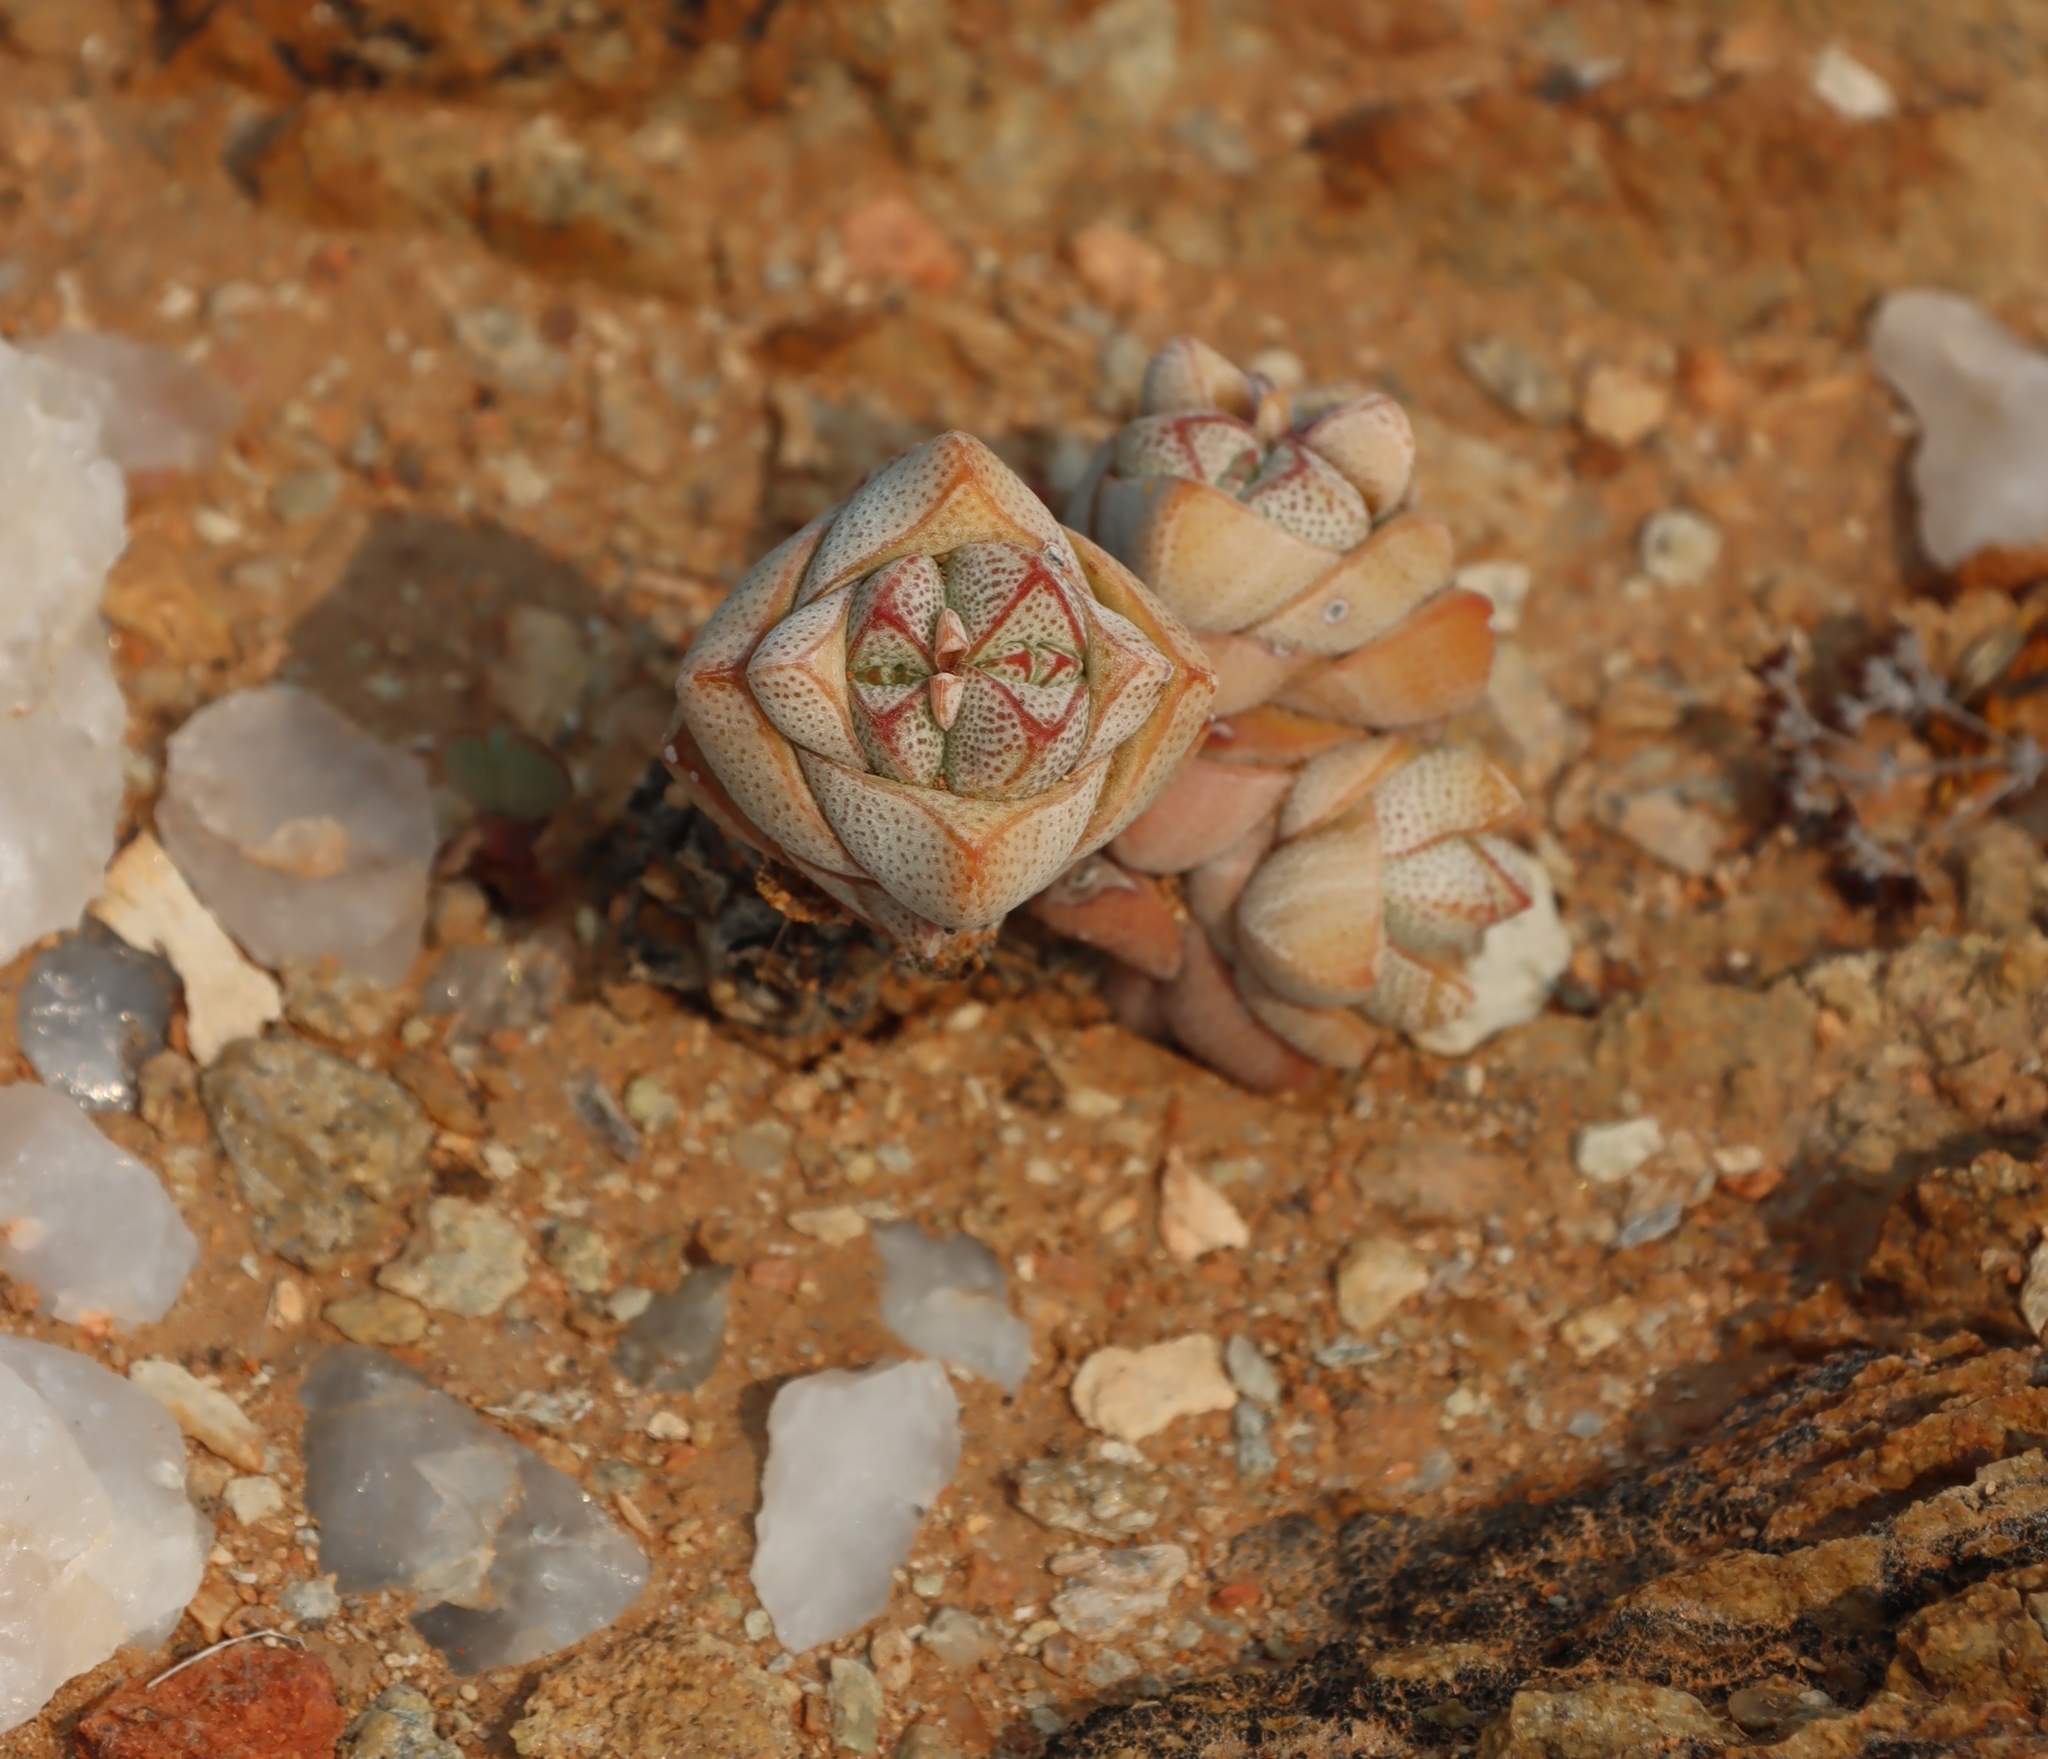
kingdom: Plantae
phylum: Tracheophyta
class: Magnoliopsida
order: Saxifragales
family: Crassulaceae
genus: Crassula
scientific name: Crassula deceptor
